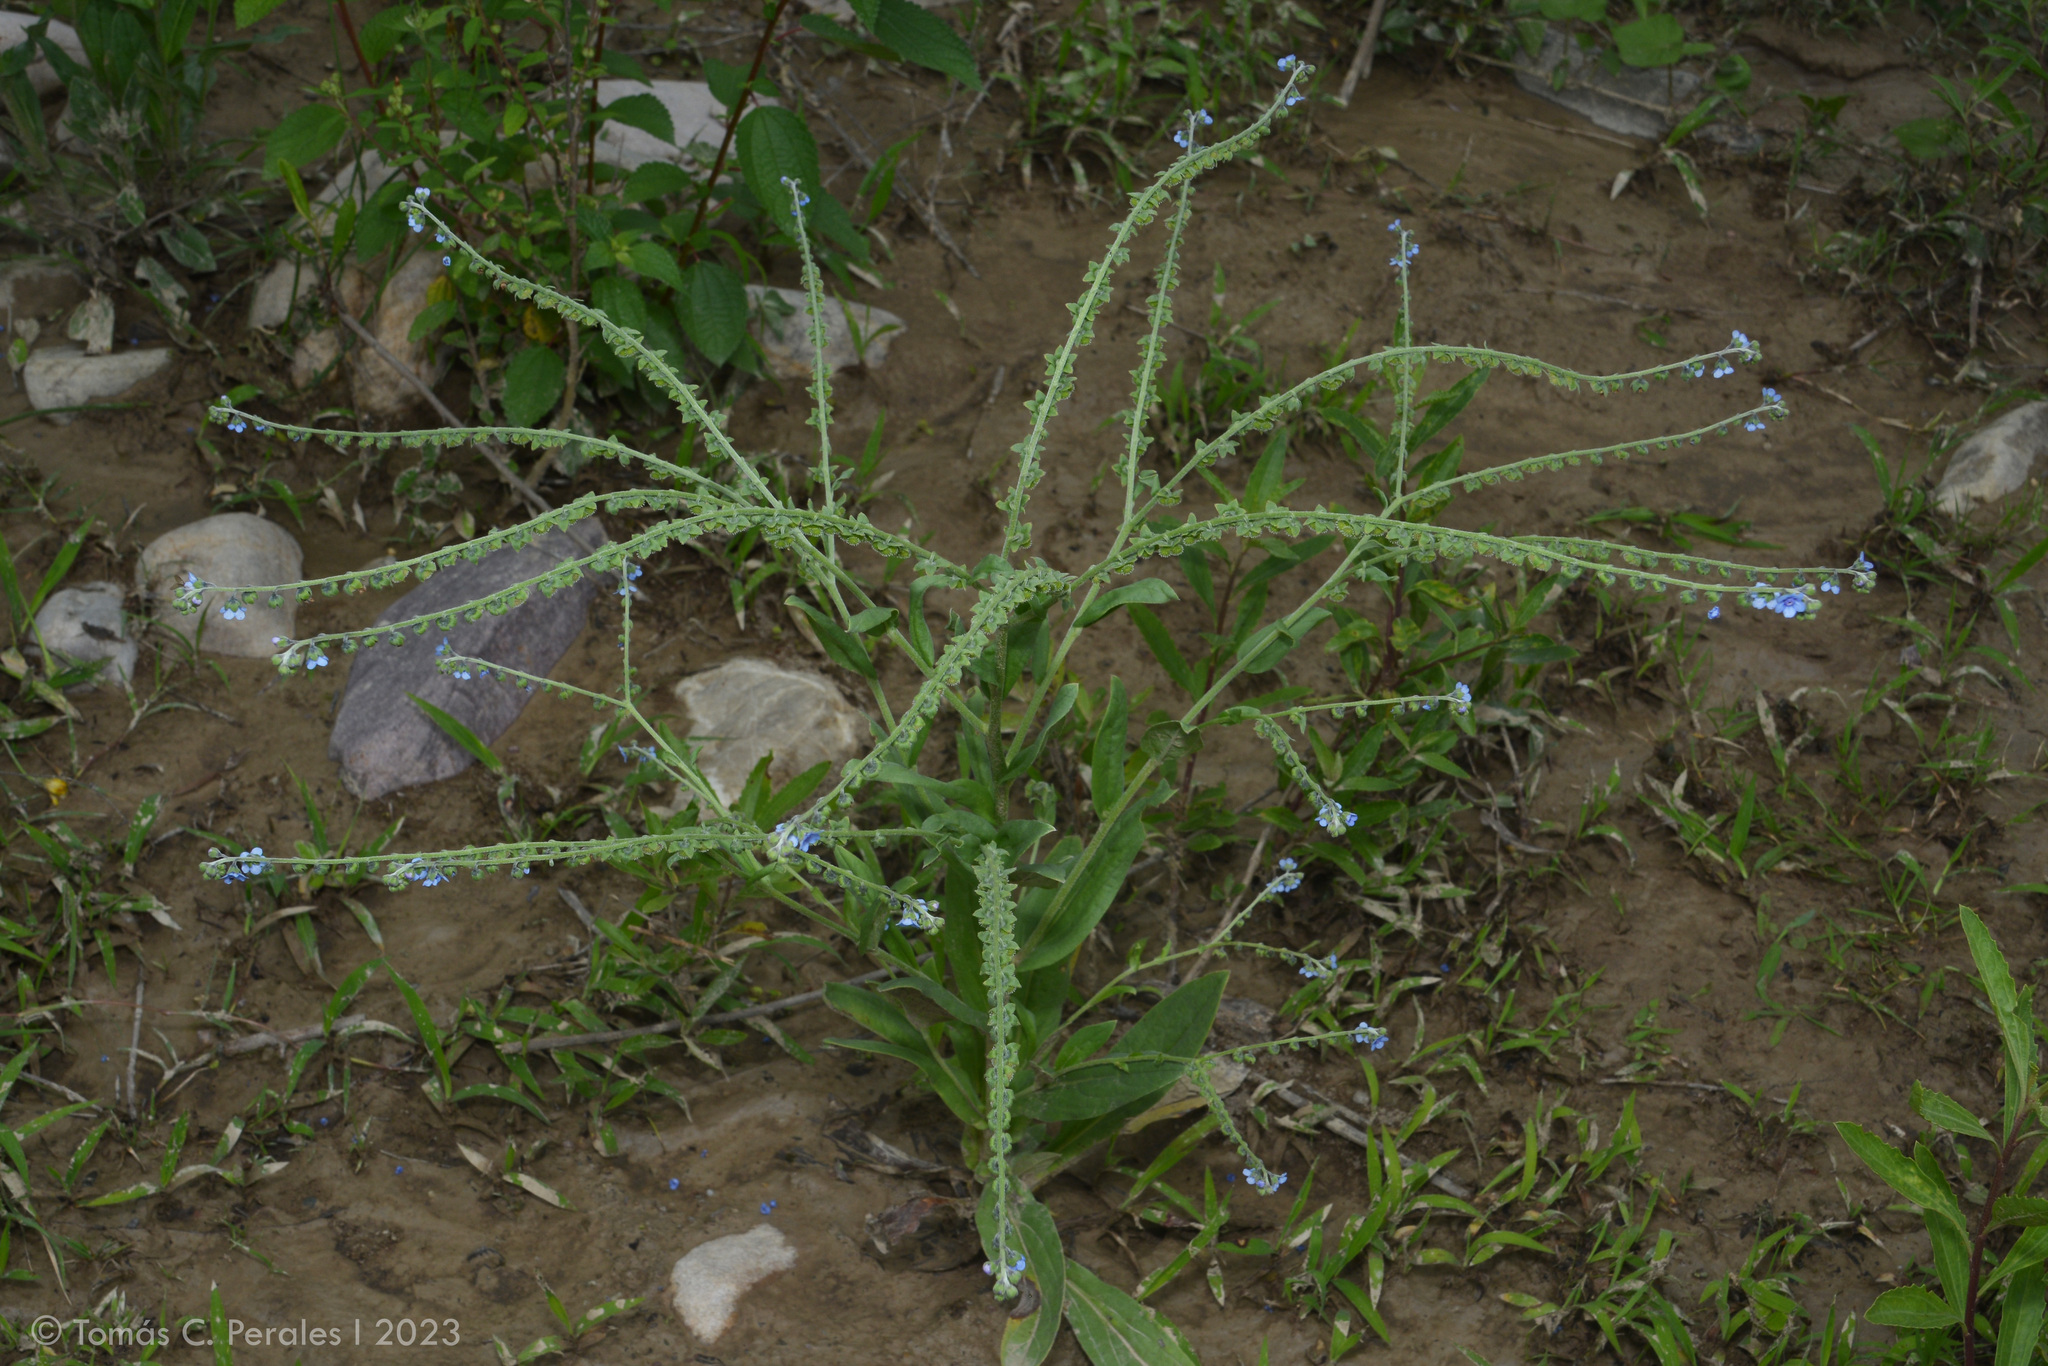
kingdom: Plantae
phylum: Tracheophyta
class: Magnoliopsida
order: Boraginales
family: Boraginaceae
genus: Cynoglossum
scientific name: Cynoglossum amabile
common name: Chinese hound's tongue
